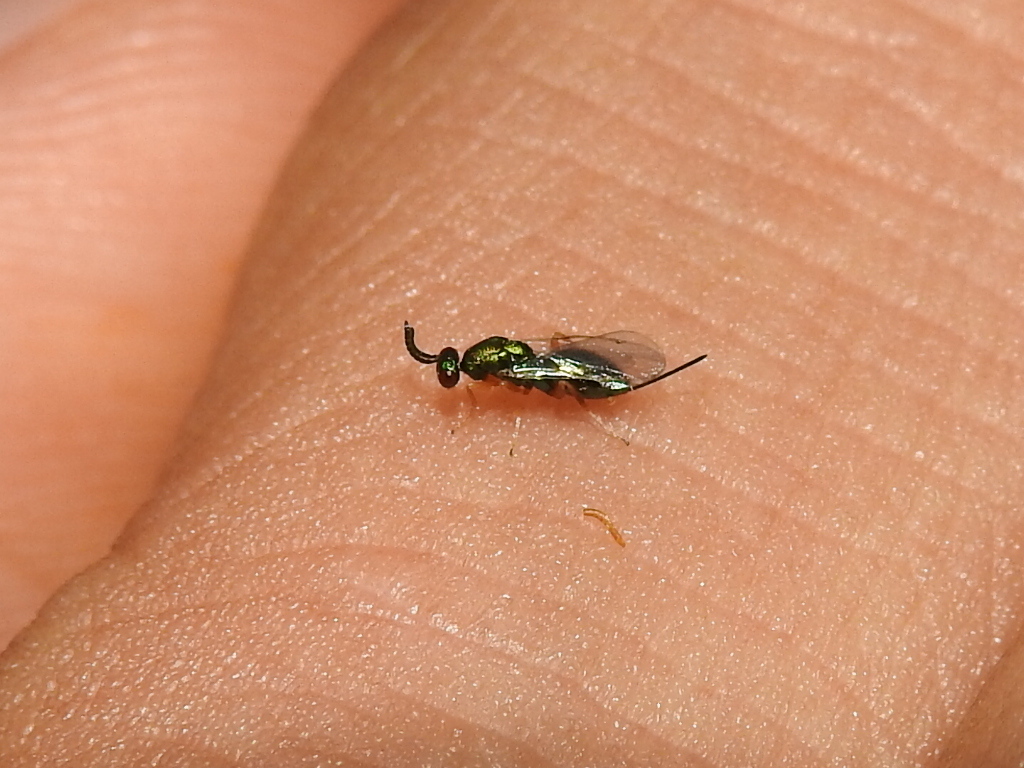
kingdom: Animalia
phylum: Arthropoda
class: Insecta
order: Hymenoptera
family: Torymidae
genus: Torymus
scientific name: Torymus microstigma
